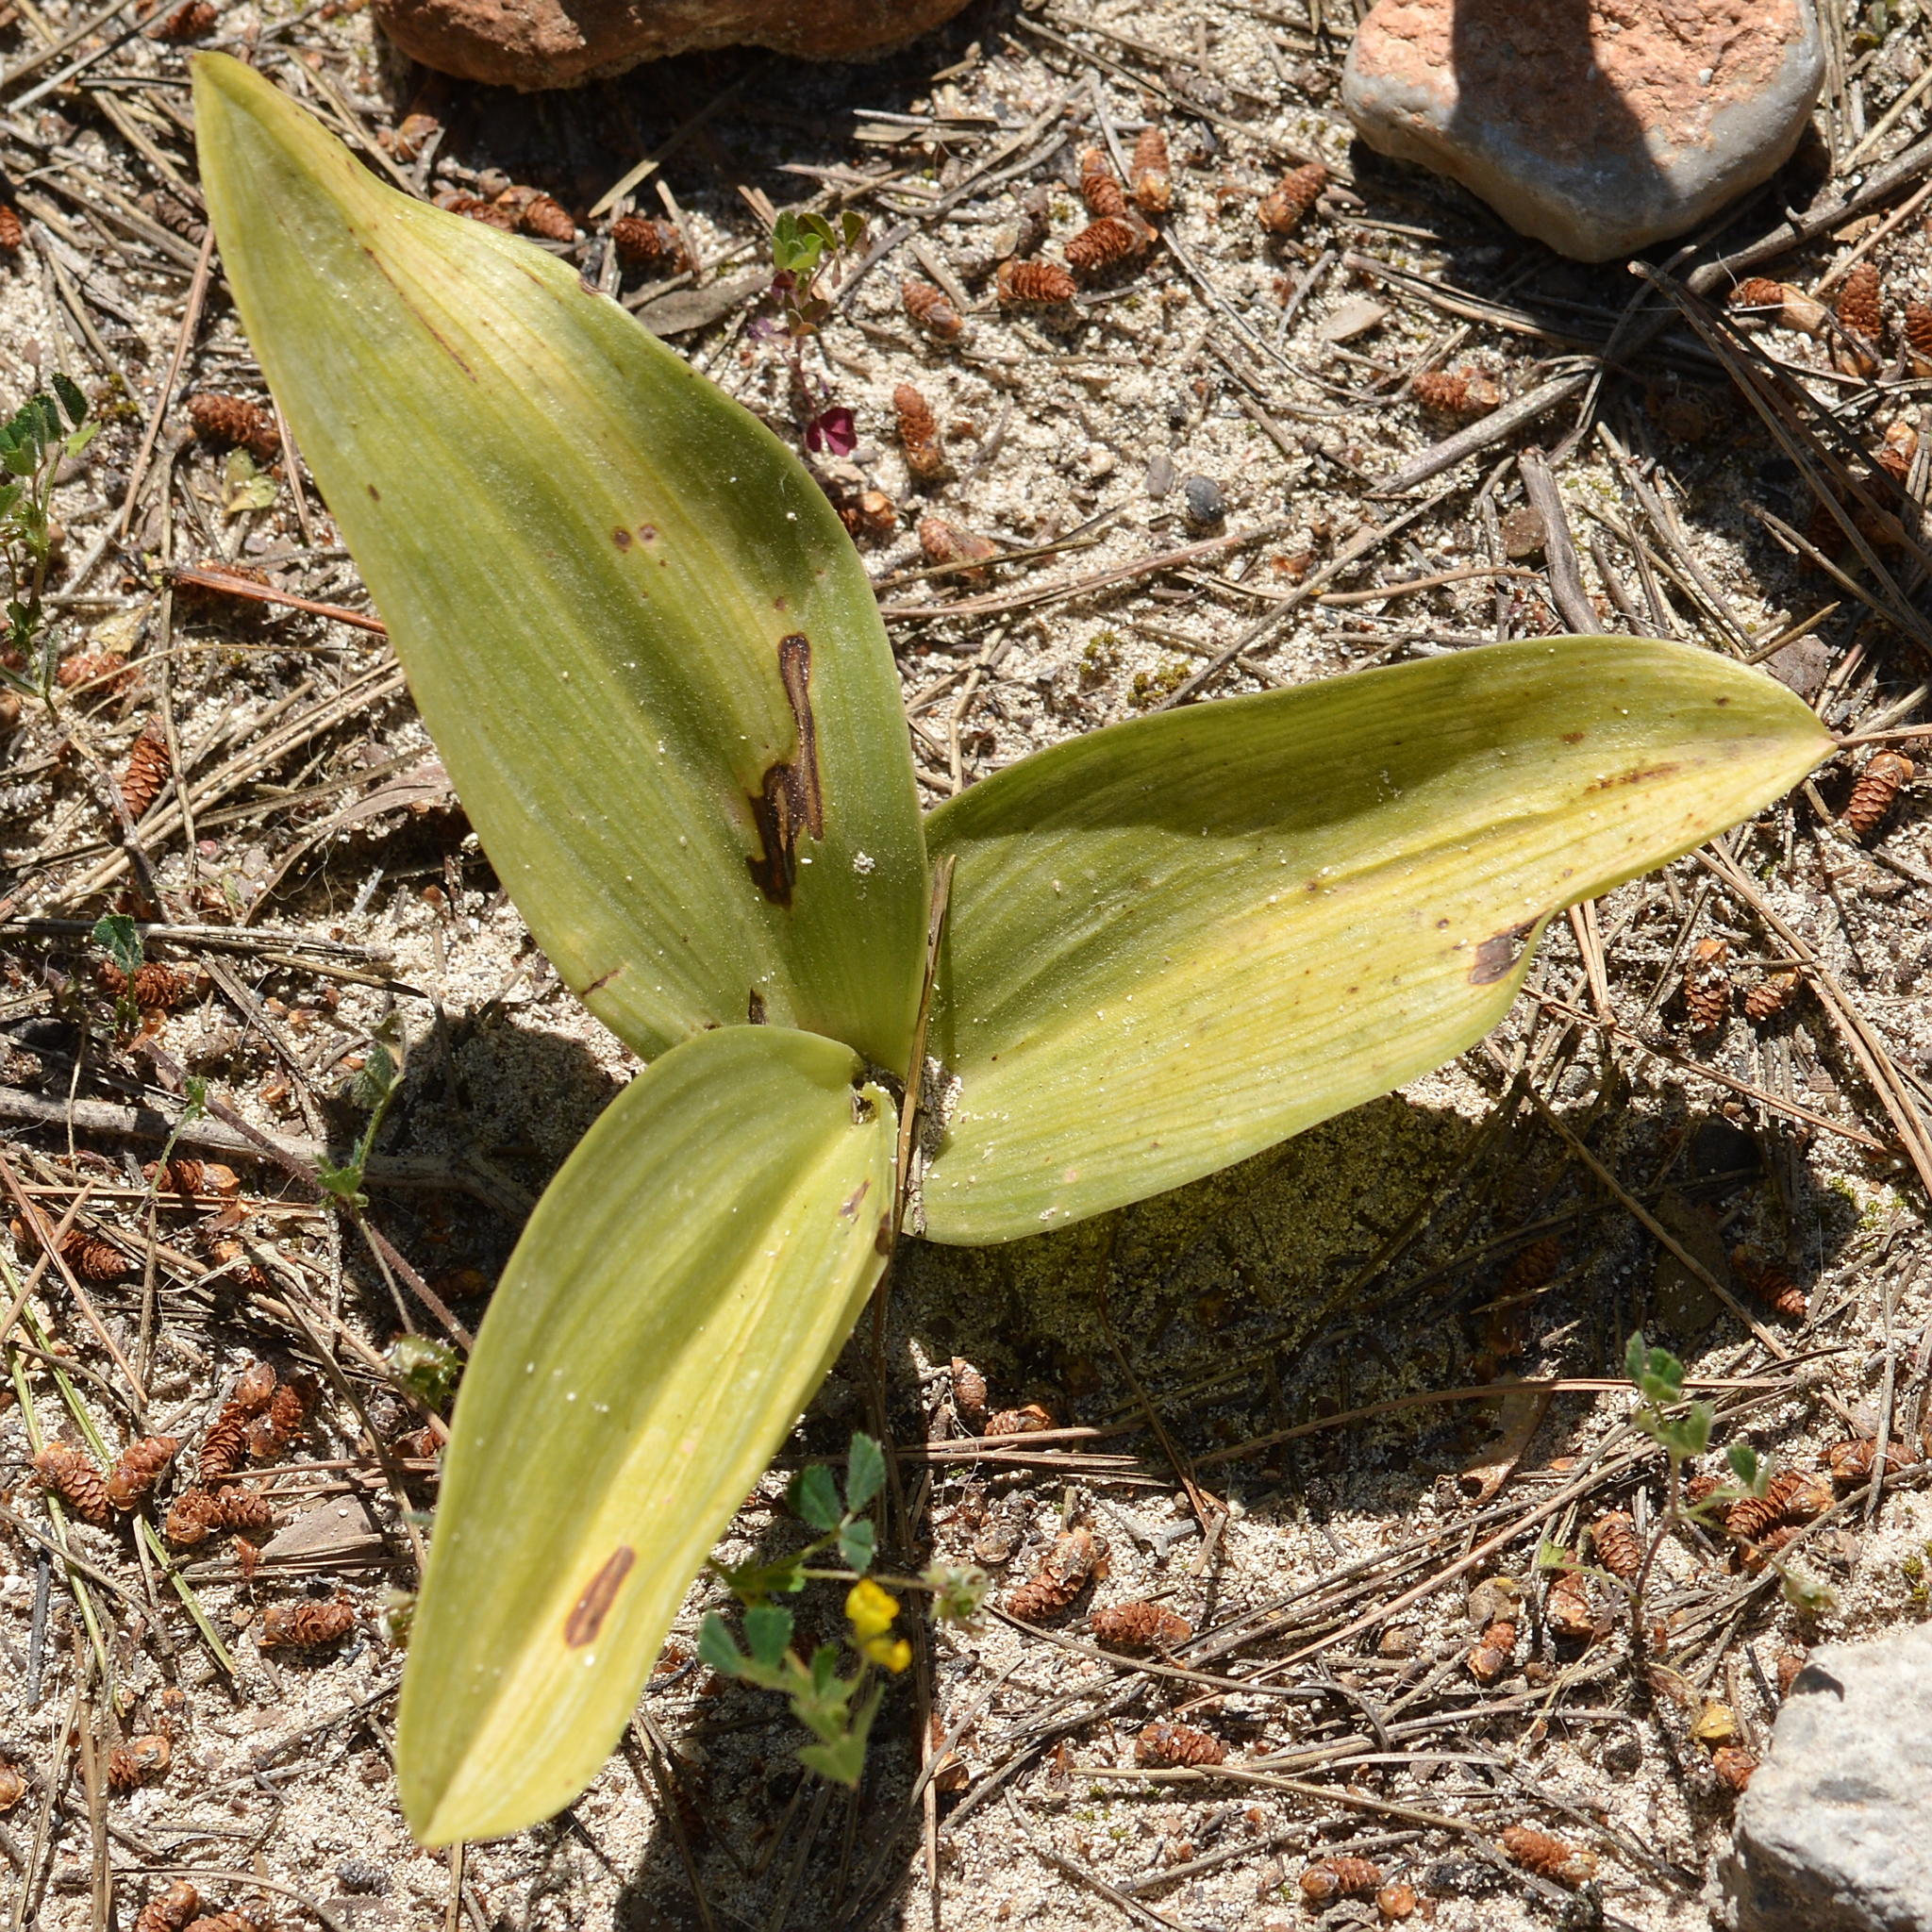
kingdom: Plantae
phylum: Tracheophyta
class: Liliopsida
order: Asparagales
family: Orchidaceae
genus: Himantoglossum
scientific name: Himantoglossum robertianum
